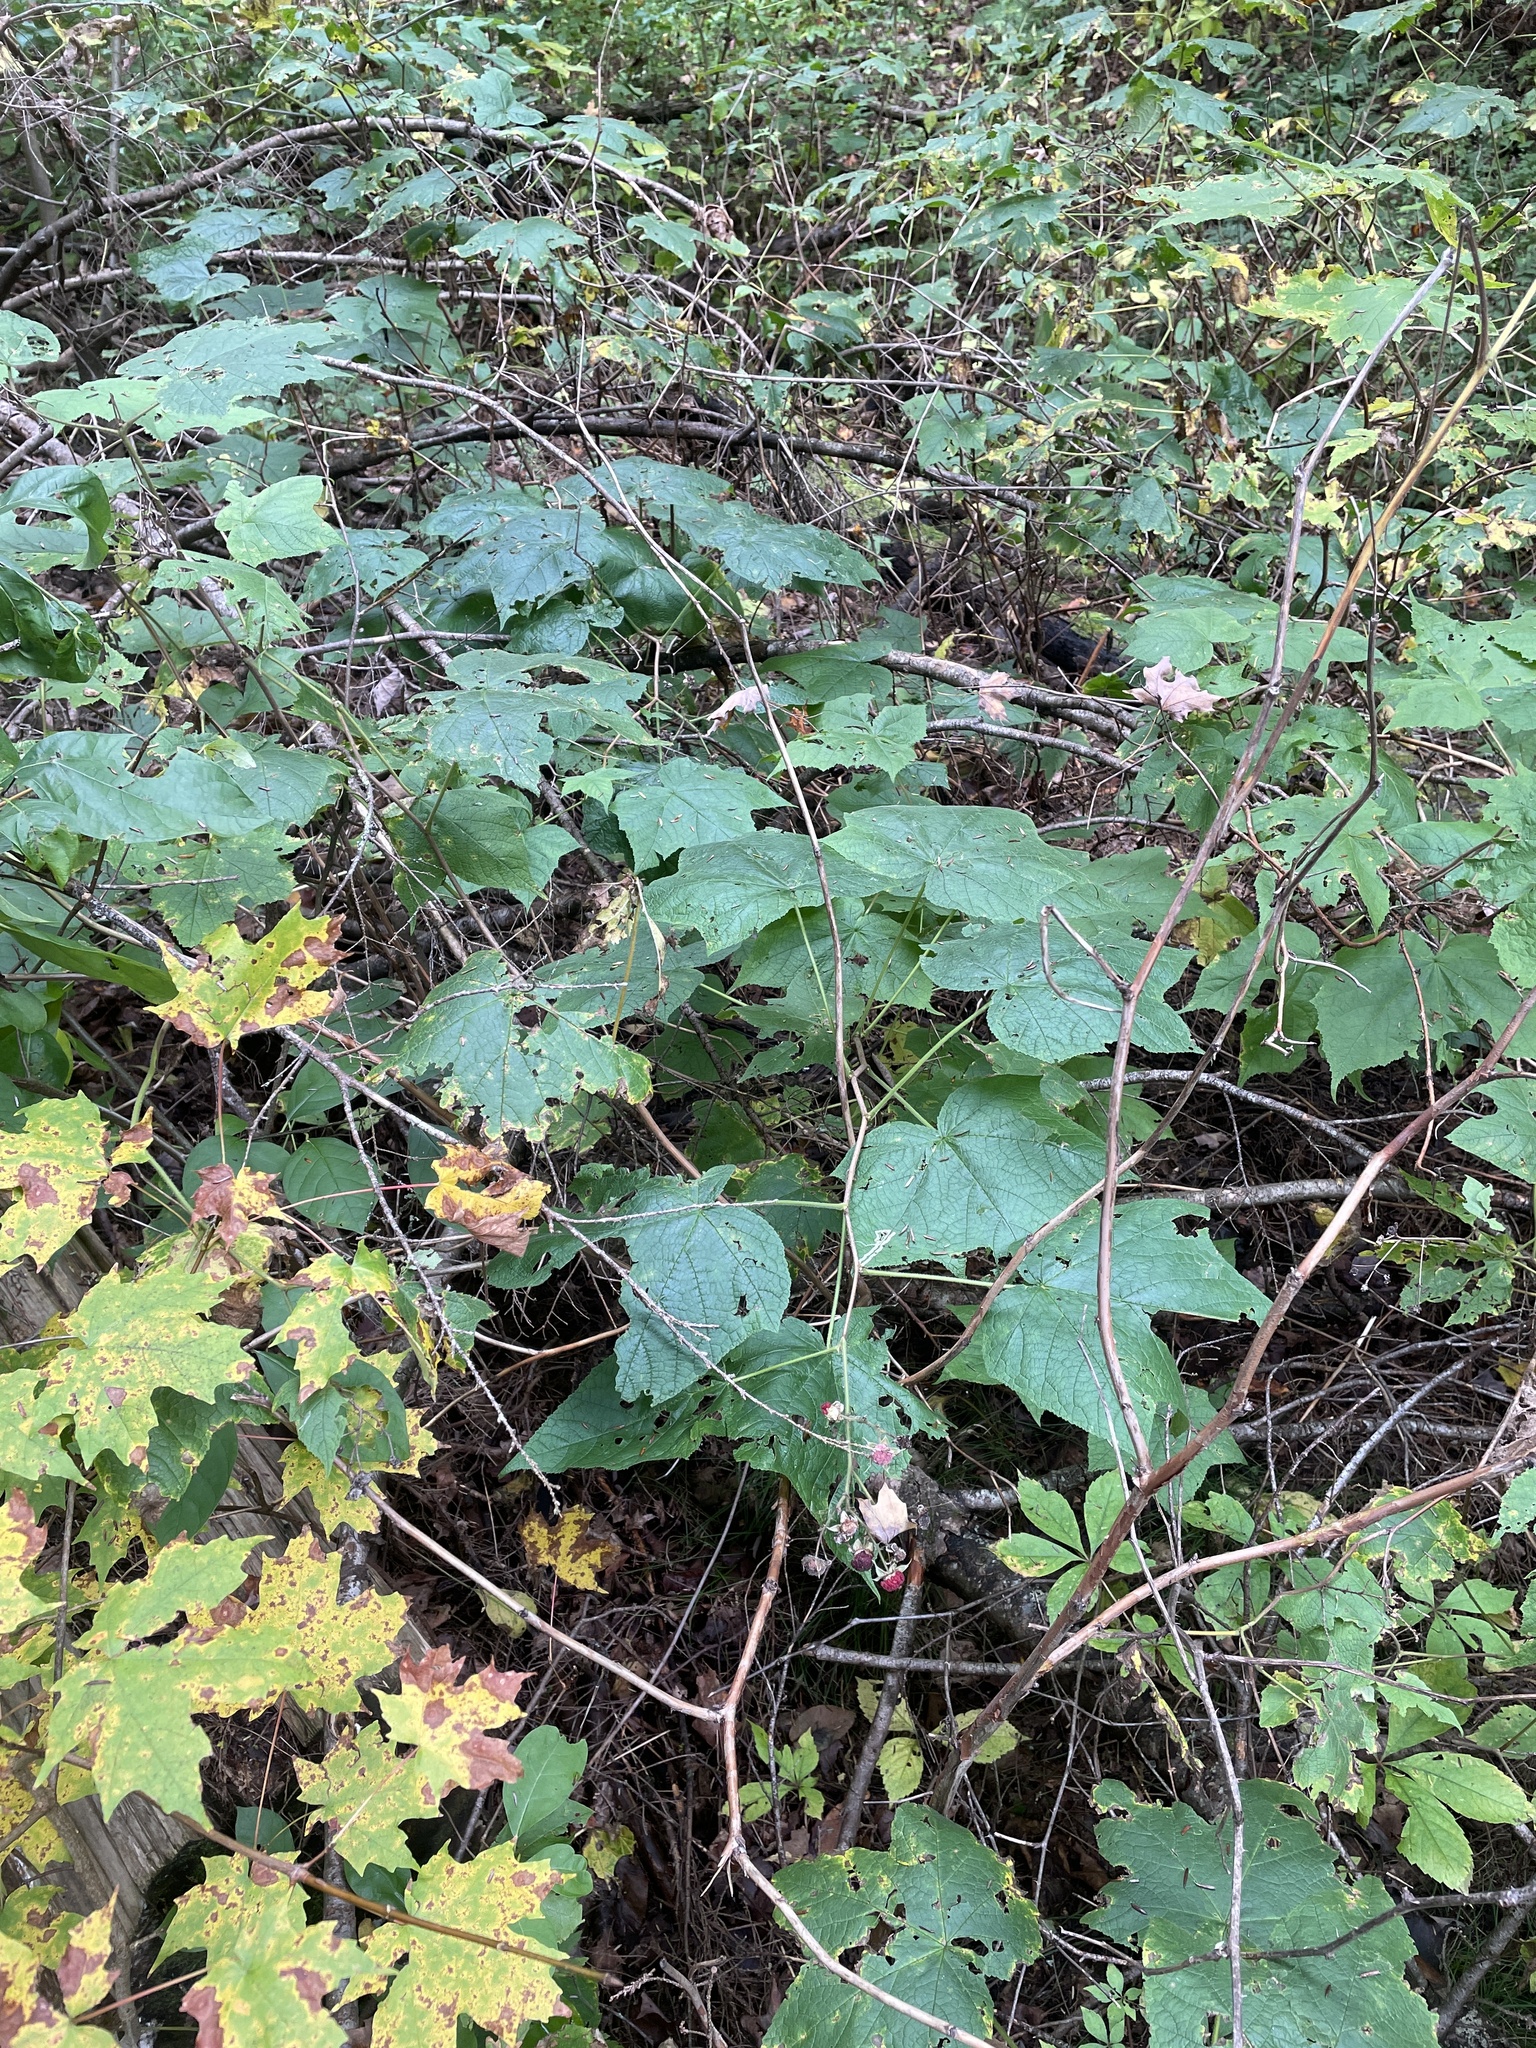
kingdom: Plantae
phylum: Tracheophyta
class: Magnoliopsida
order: Rosales
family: Rosaceae
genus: Rubus
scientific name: Rubus odoratus
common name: Purple-flowered raspberry
